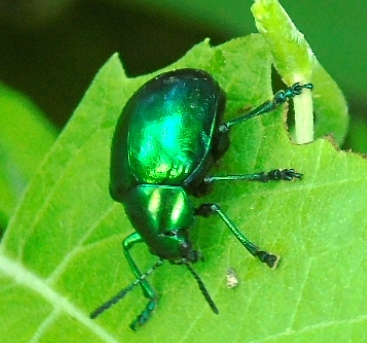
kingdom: Animalia
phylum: Arthropoda
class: Insecta
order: Coleoptera
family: Chrysomelidae
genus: Eumolpus
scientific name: Eumolpus robustus
